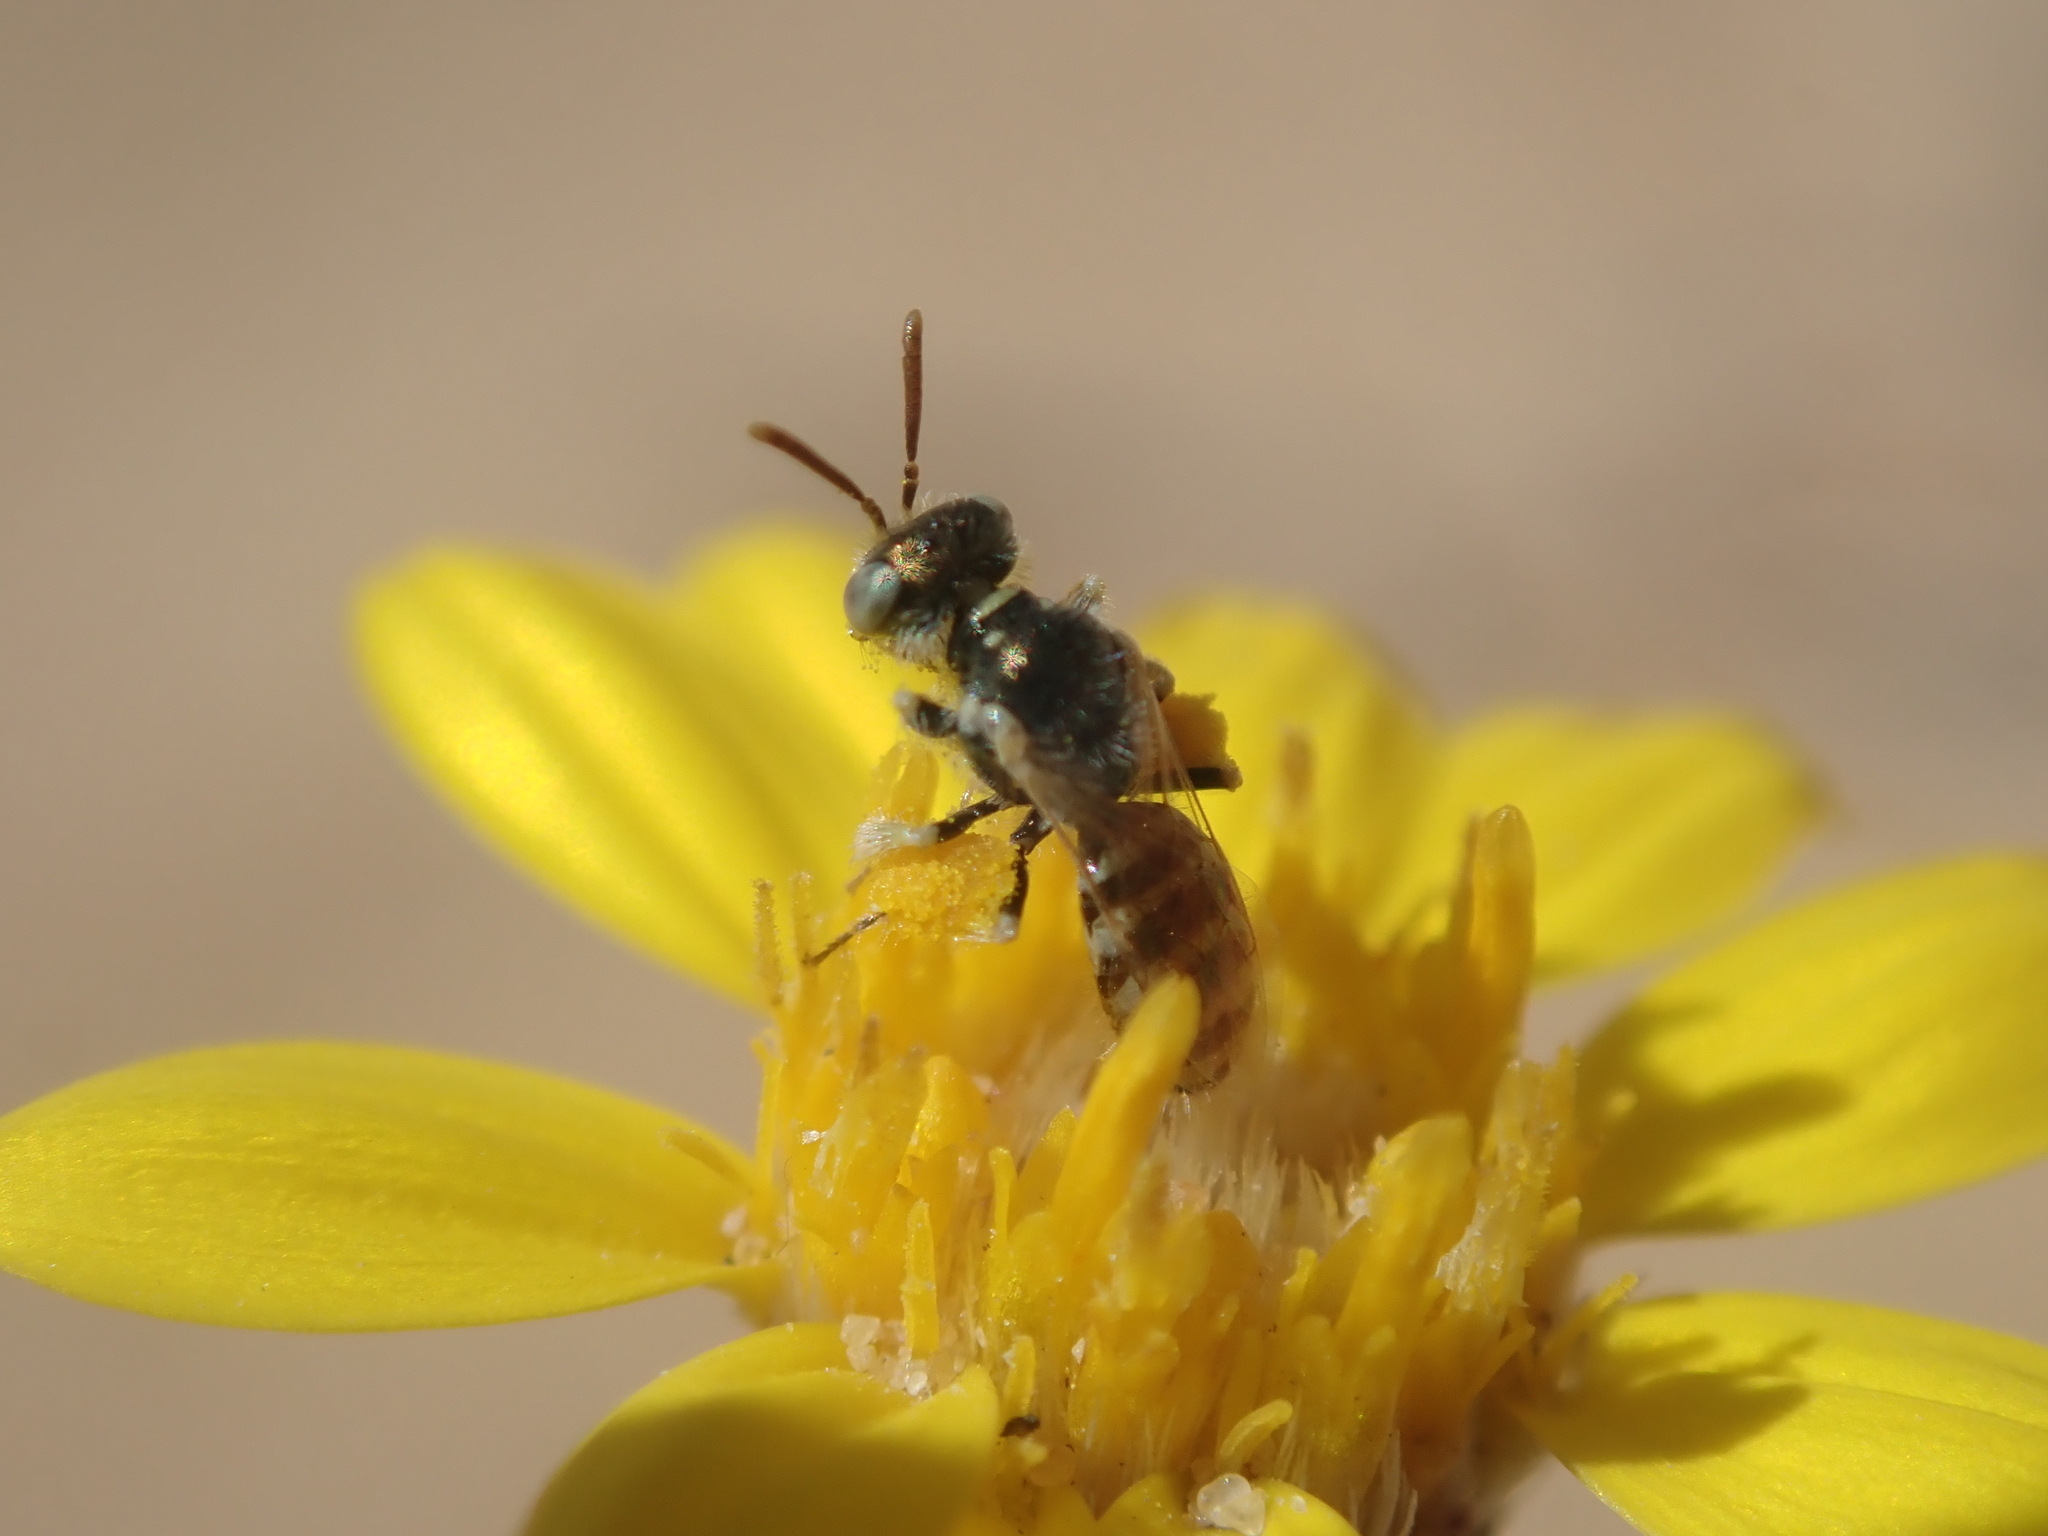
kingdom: Animalia
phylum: Arthropoda
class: Insecta
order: Hymenoptera
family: Andrenidae
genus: Perdita
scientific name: Perdita
